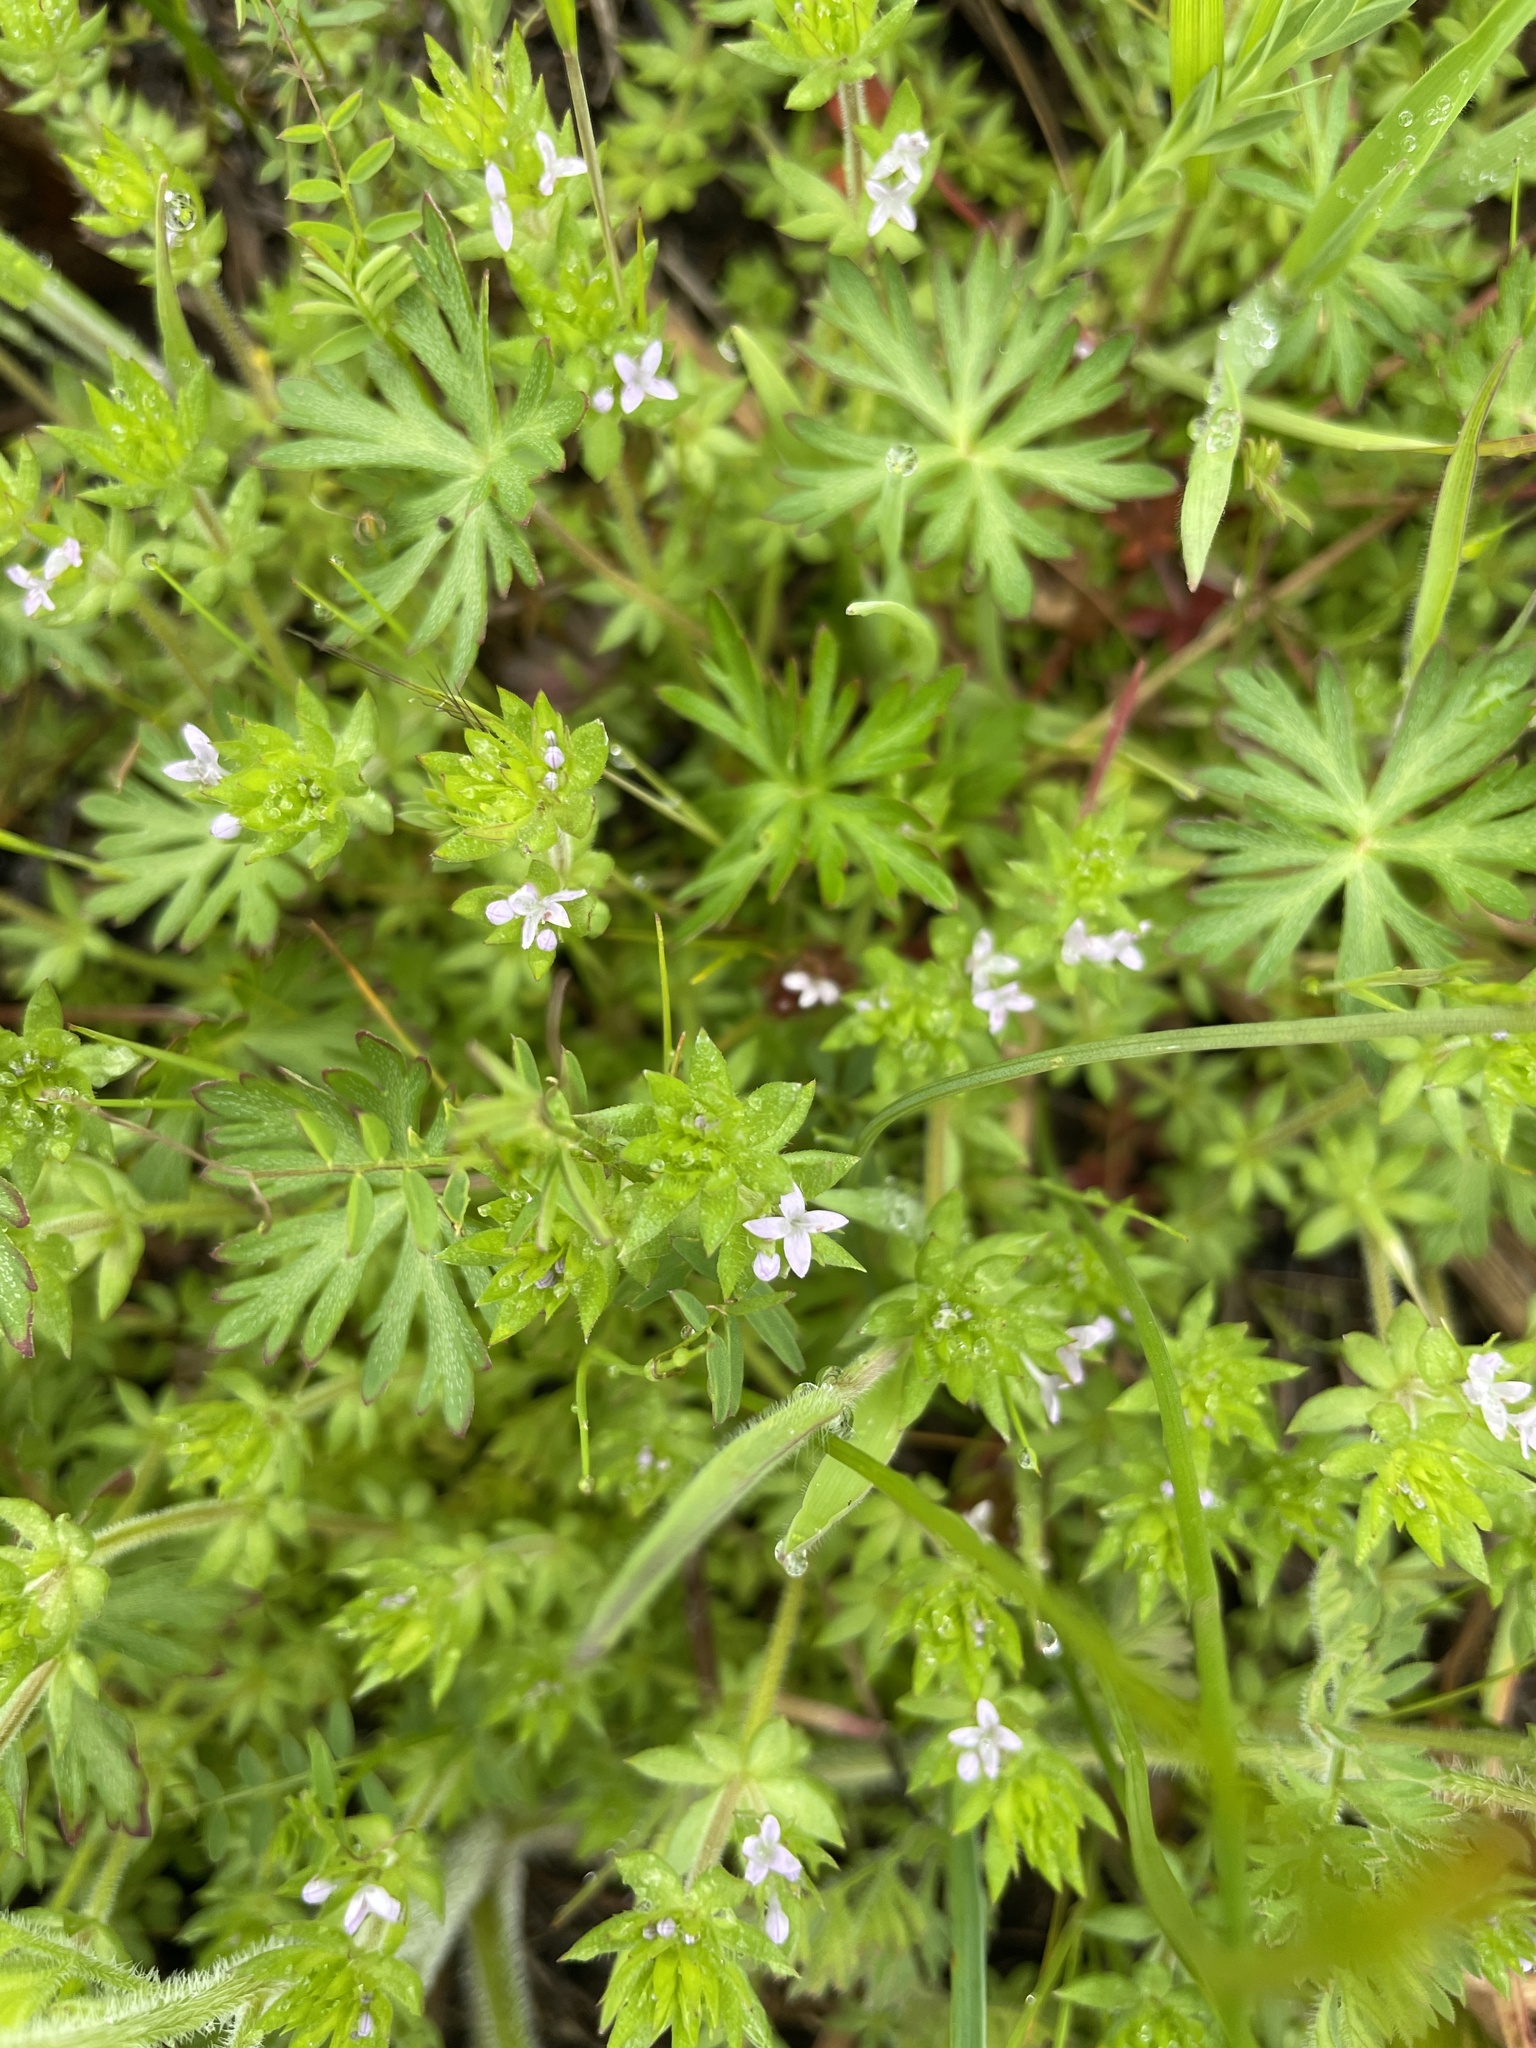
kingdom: Plantae
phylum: Tracheophyta
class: Magnoliopsida
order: Gentianales
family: Rubiaceae
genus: Sherardia
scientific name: Sherardia arvensis
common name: Field madder
